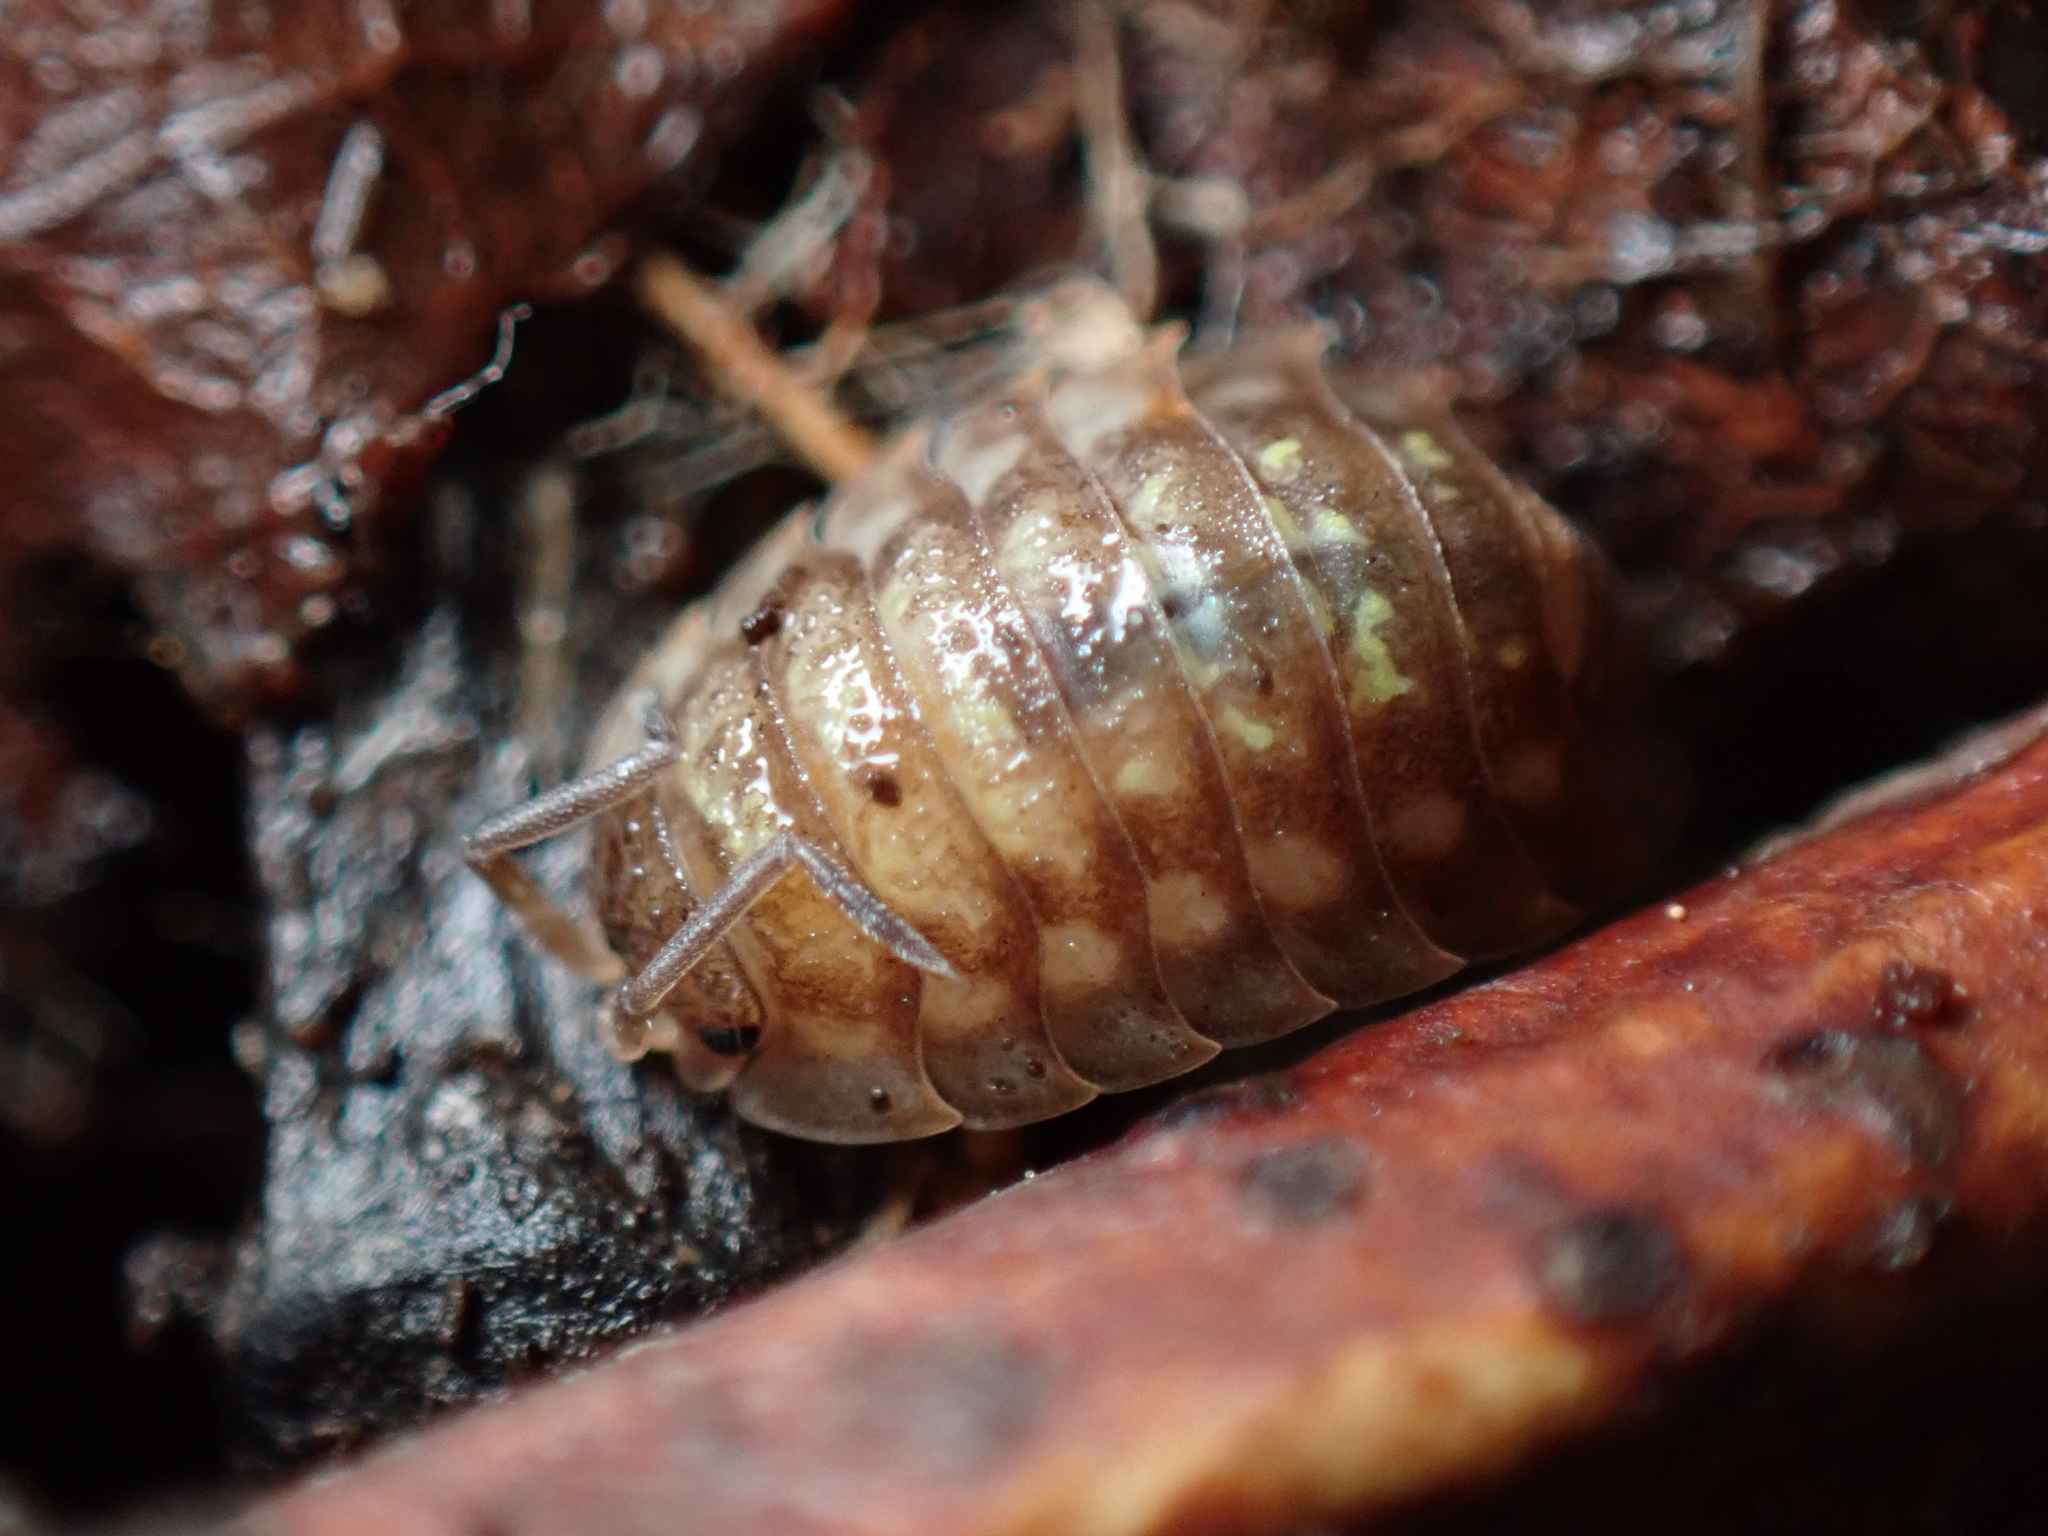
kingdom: Animalia
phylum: Arthropoda
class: Malacostraca
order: Isopoda
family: Oniscidae
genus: Oniscus
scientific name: Oniscus asellus
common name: Common shiny woodlouse
